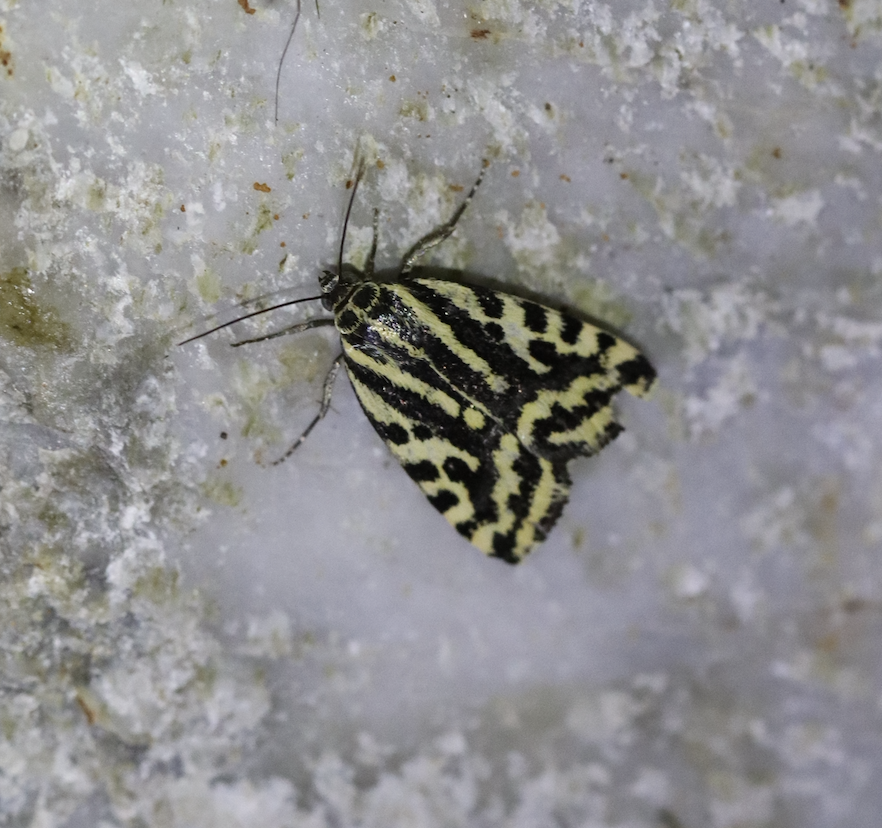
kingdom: Animalia
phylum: Arthropoda
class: Insecta
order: Lepidoptera
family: Noctuidae
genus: Acontia
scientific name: Acontia trabealis
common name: Spotted sulphur
